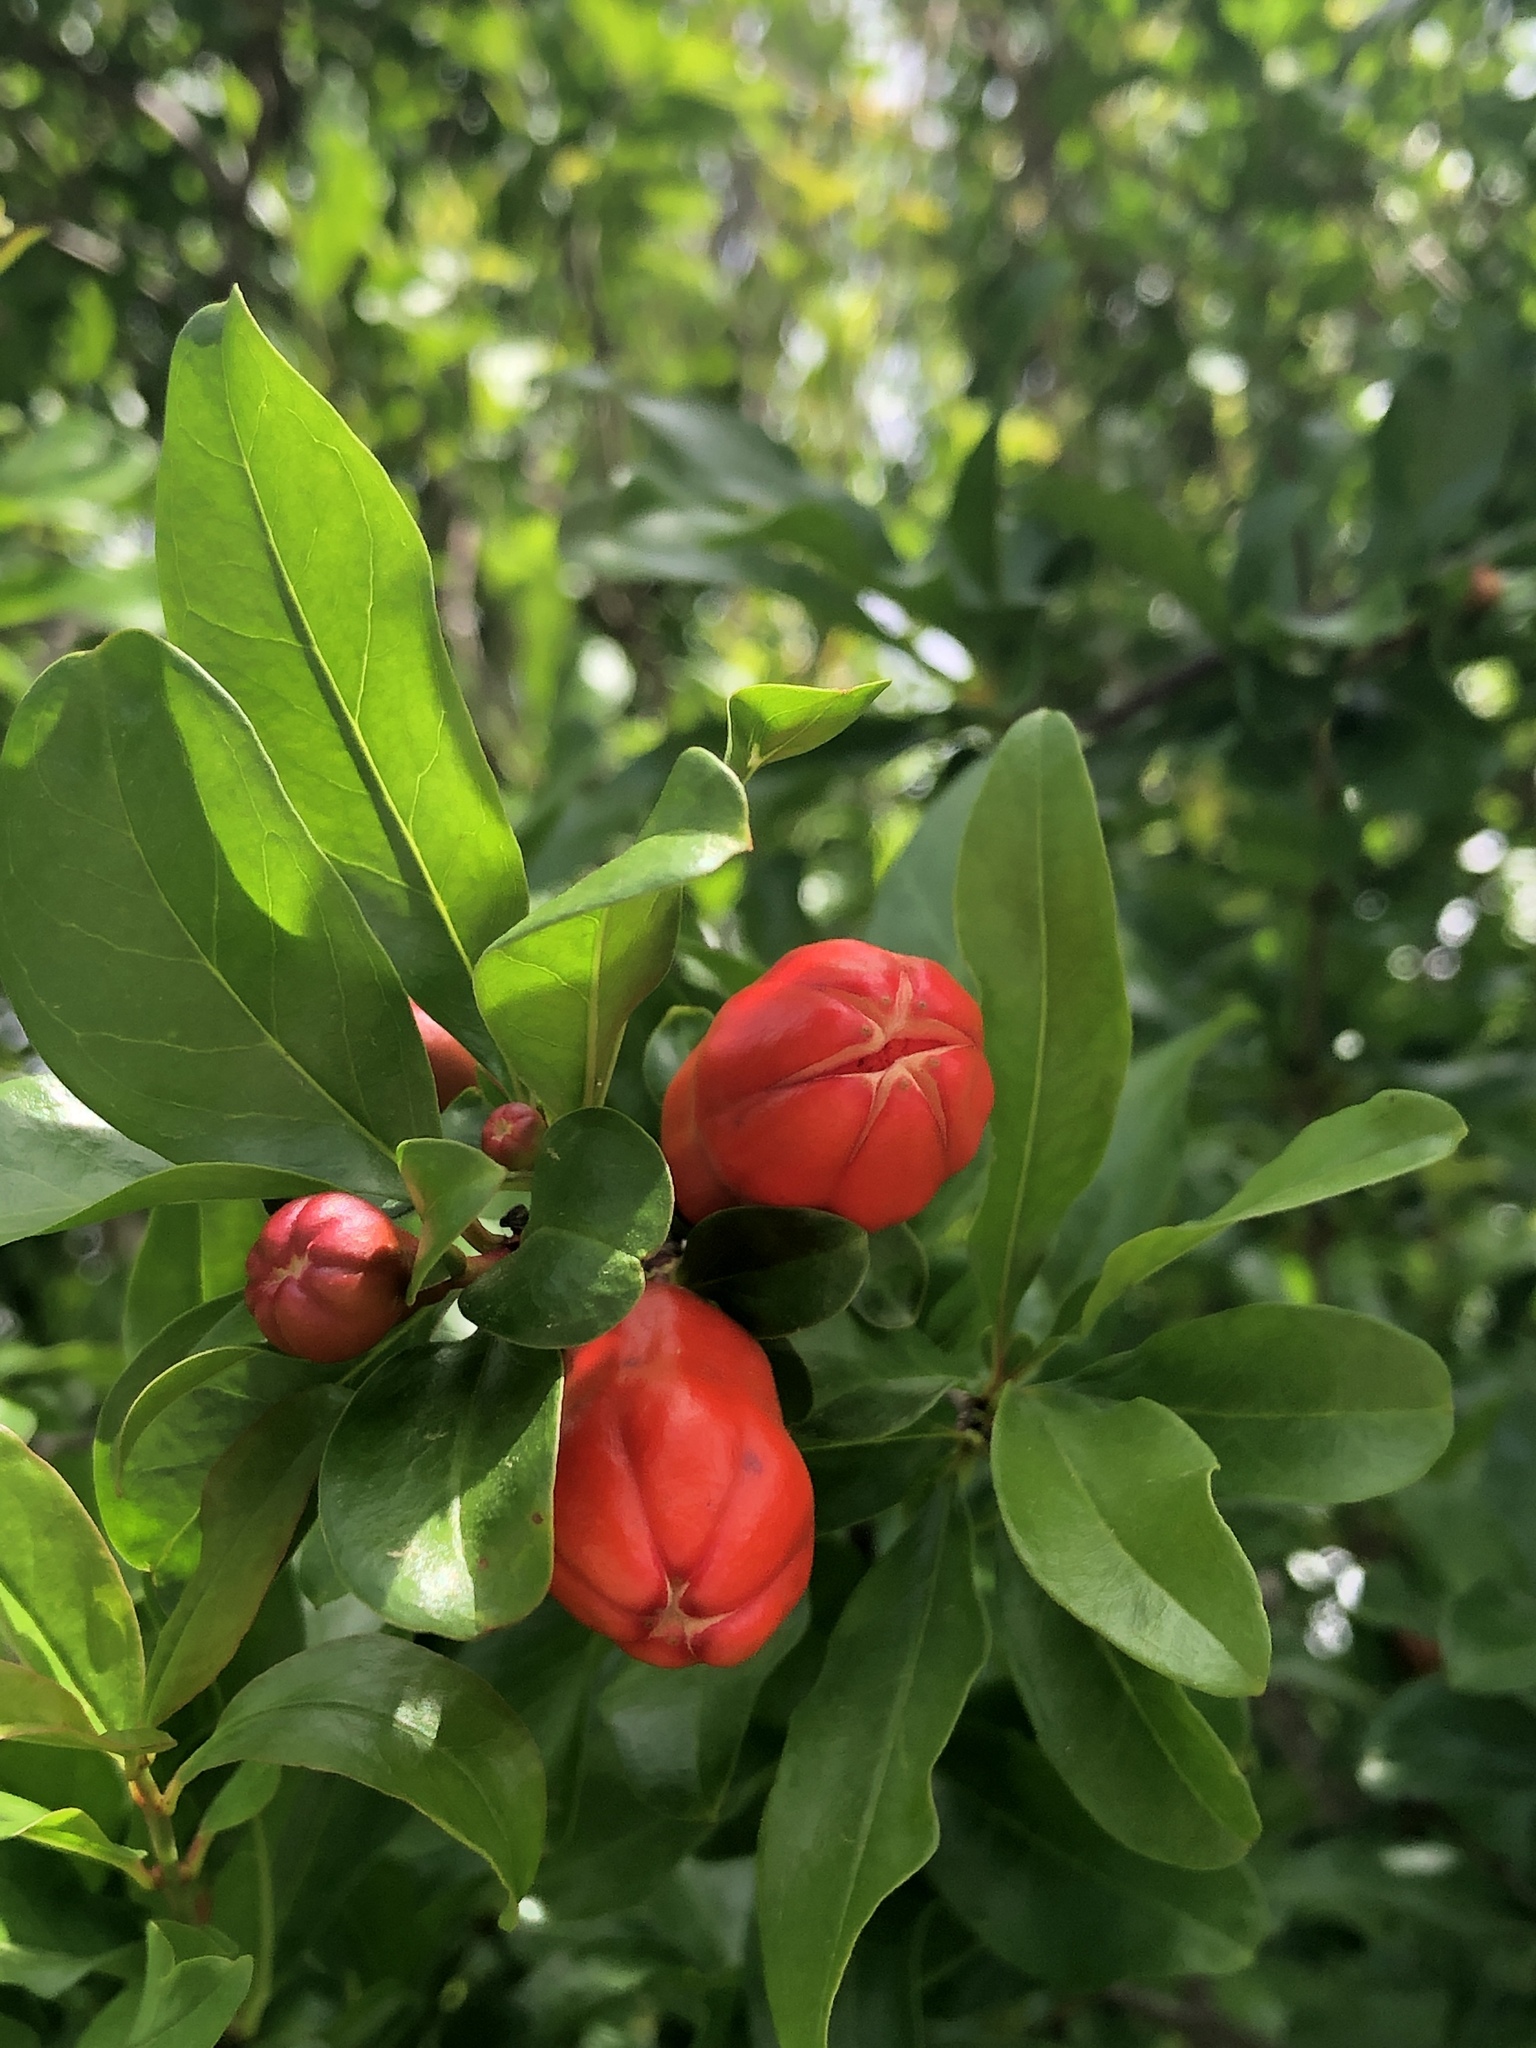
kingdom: Plantae
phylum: Tracheophyta
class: Magnoliopsida
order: Myrtales
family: Lythraceae
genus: Punica
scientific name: Punica granatum
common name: Pomegranate
